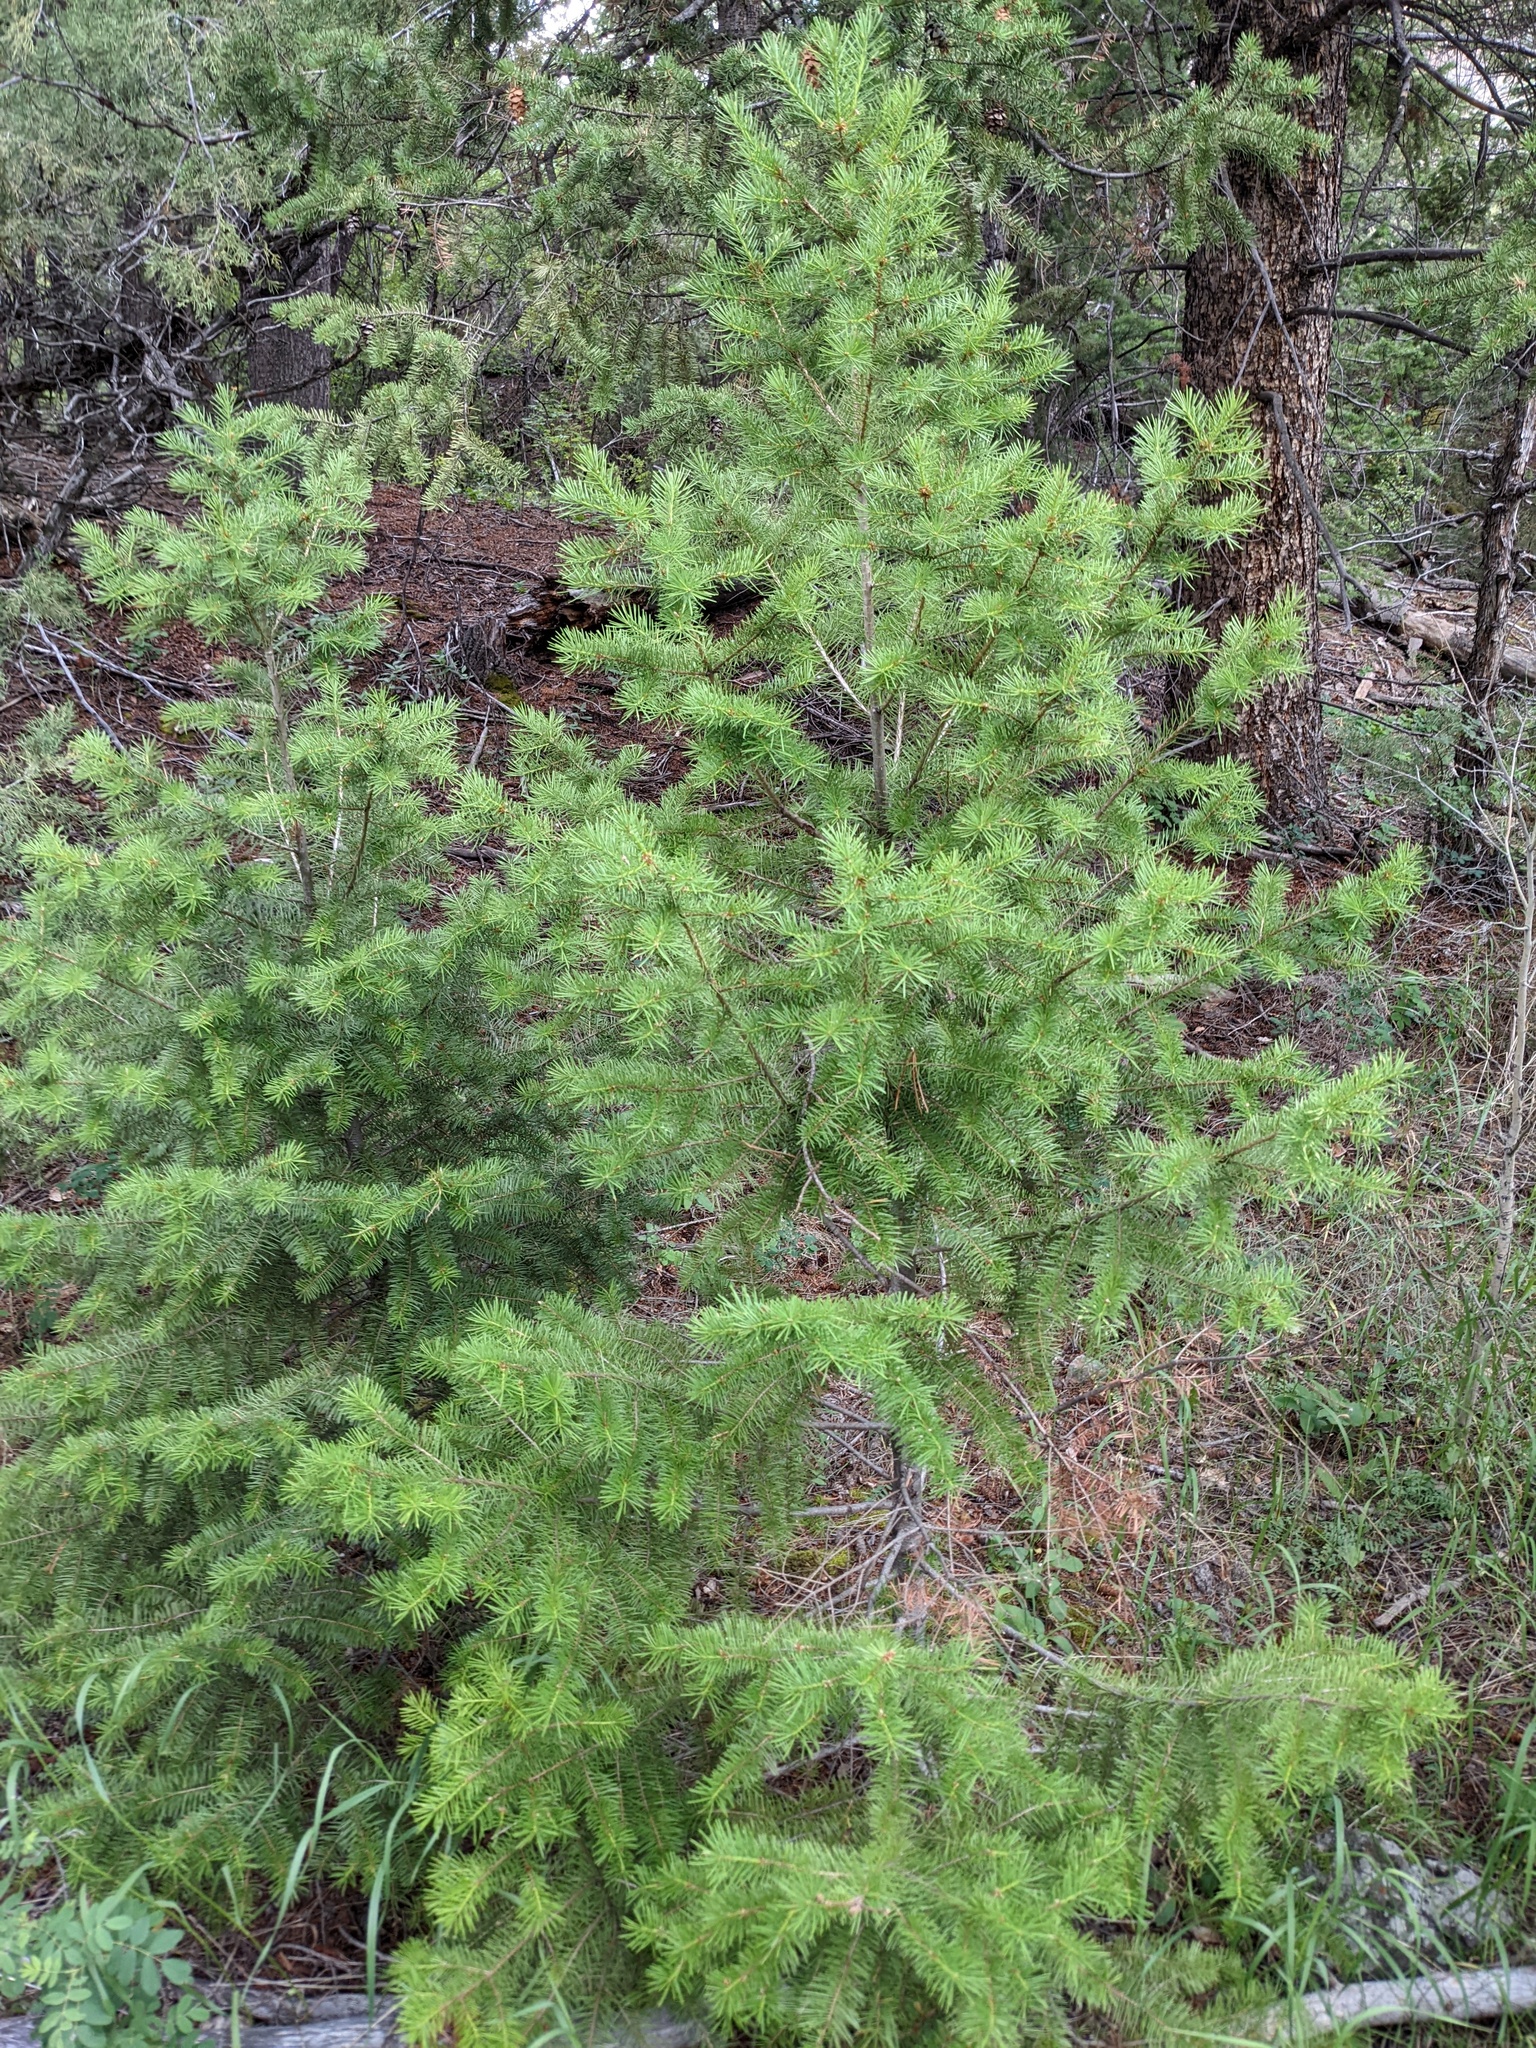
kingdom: Plantae
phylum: Tracheophyta
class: Pinopsida
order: Pinales
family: Pinaceae
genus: Pseudotsuga
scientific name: Pseudotsuga menziesii
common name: Douglas fir
